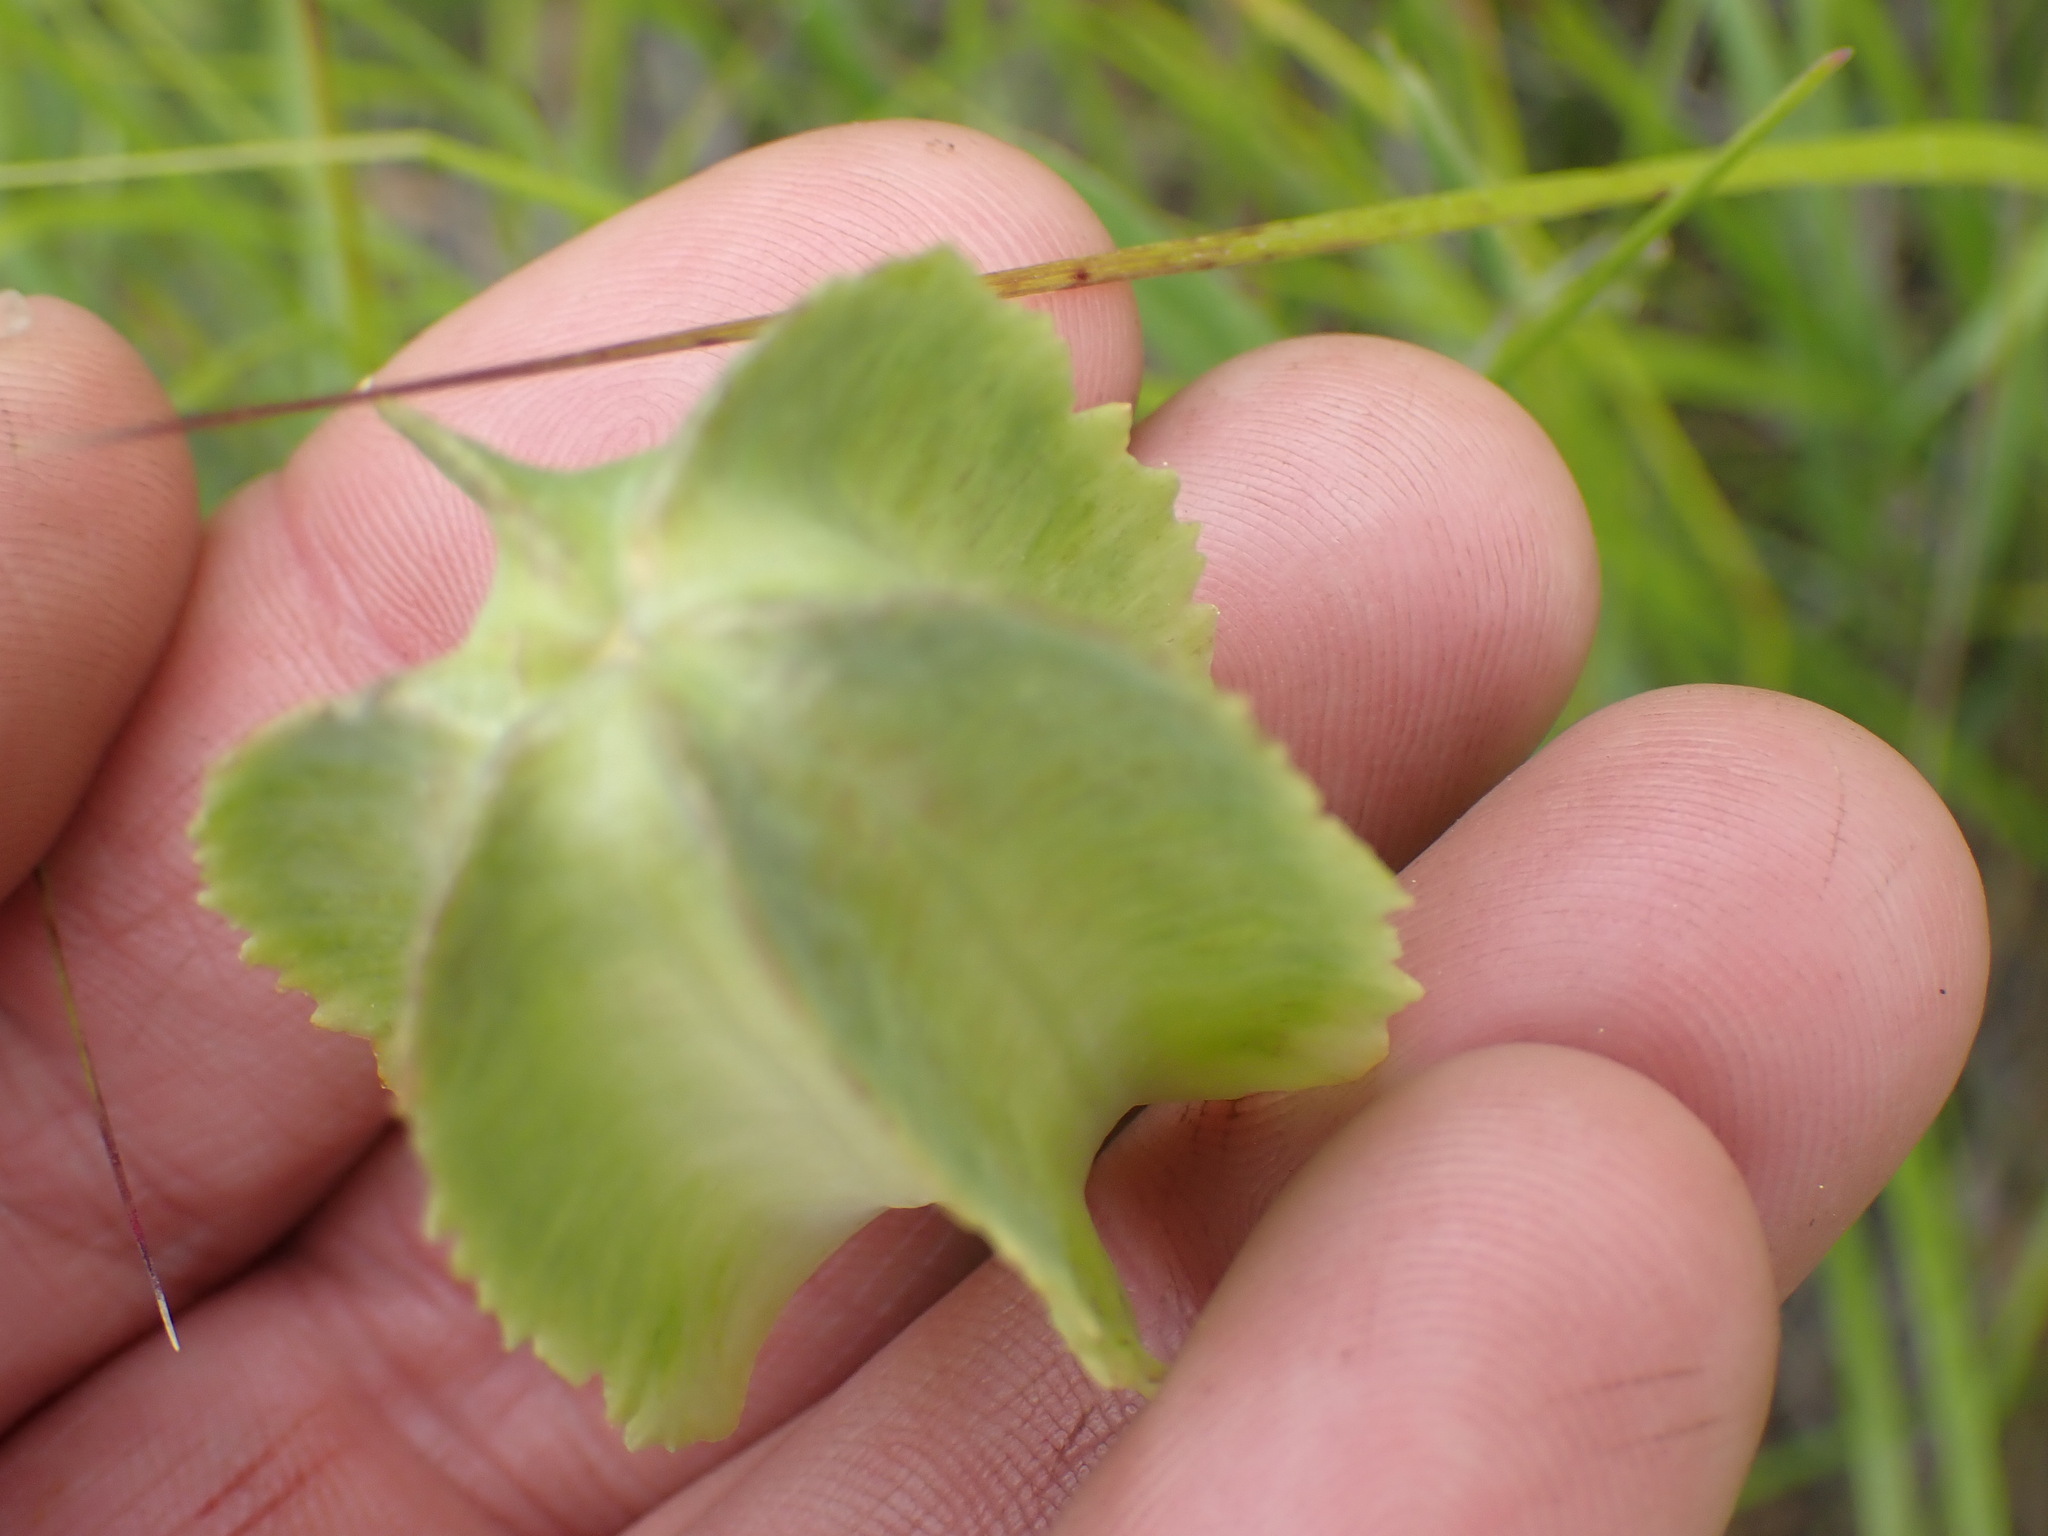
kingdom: Plantae
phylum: Tracheophyta
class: Liliopsida
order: Liliales
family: Liliaceae
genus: Fritillaria
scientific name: Fritillaria affinis
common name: Ojai fritillary
